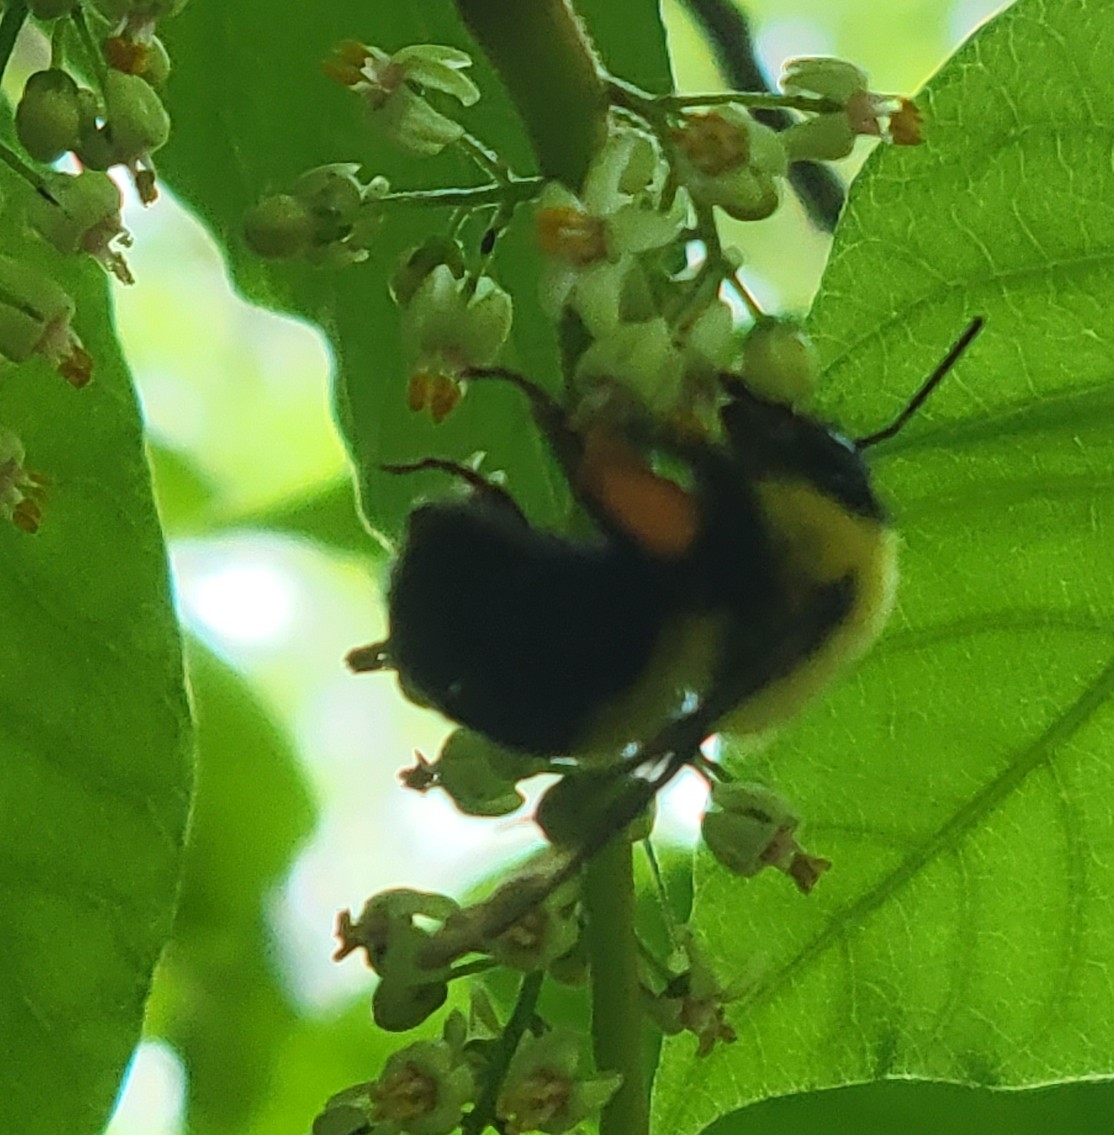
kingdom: Animalia
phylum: Arthropoda
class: Insecta
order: Hymenoptera
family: Apidae
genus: Bombus
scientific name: Bombus bimaculatus
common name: Two-spotted bumble bee
